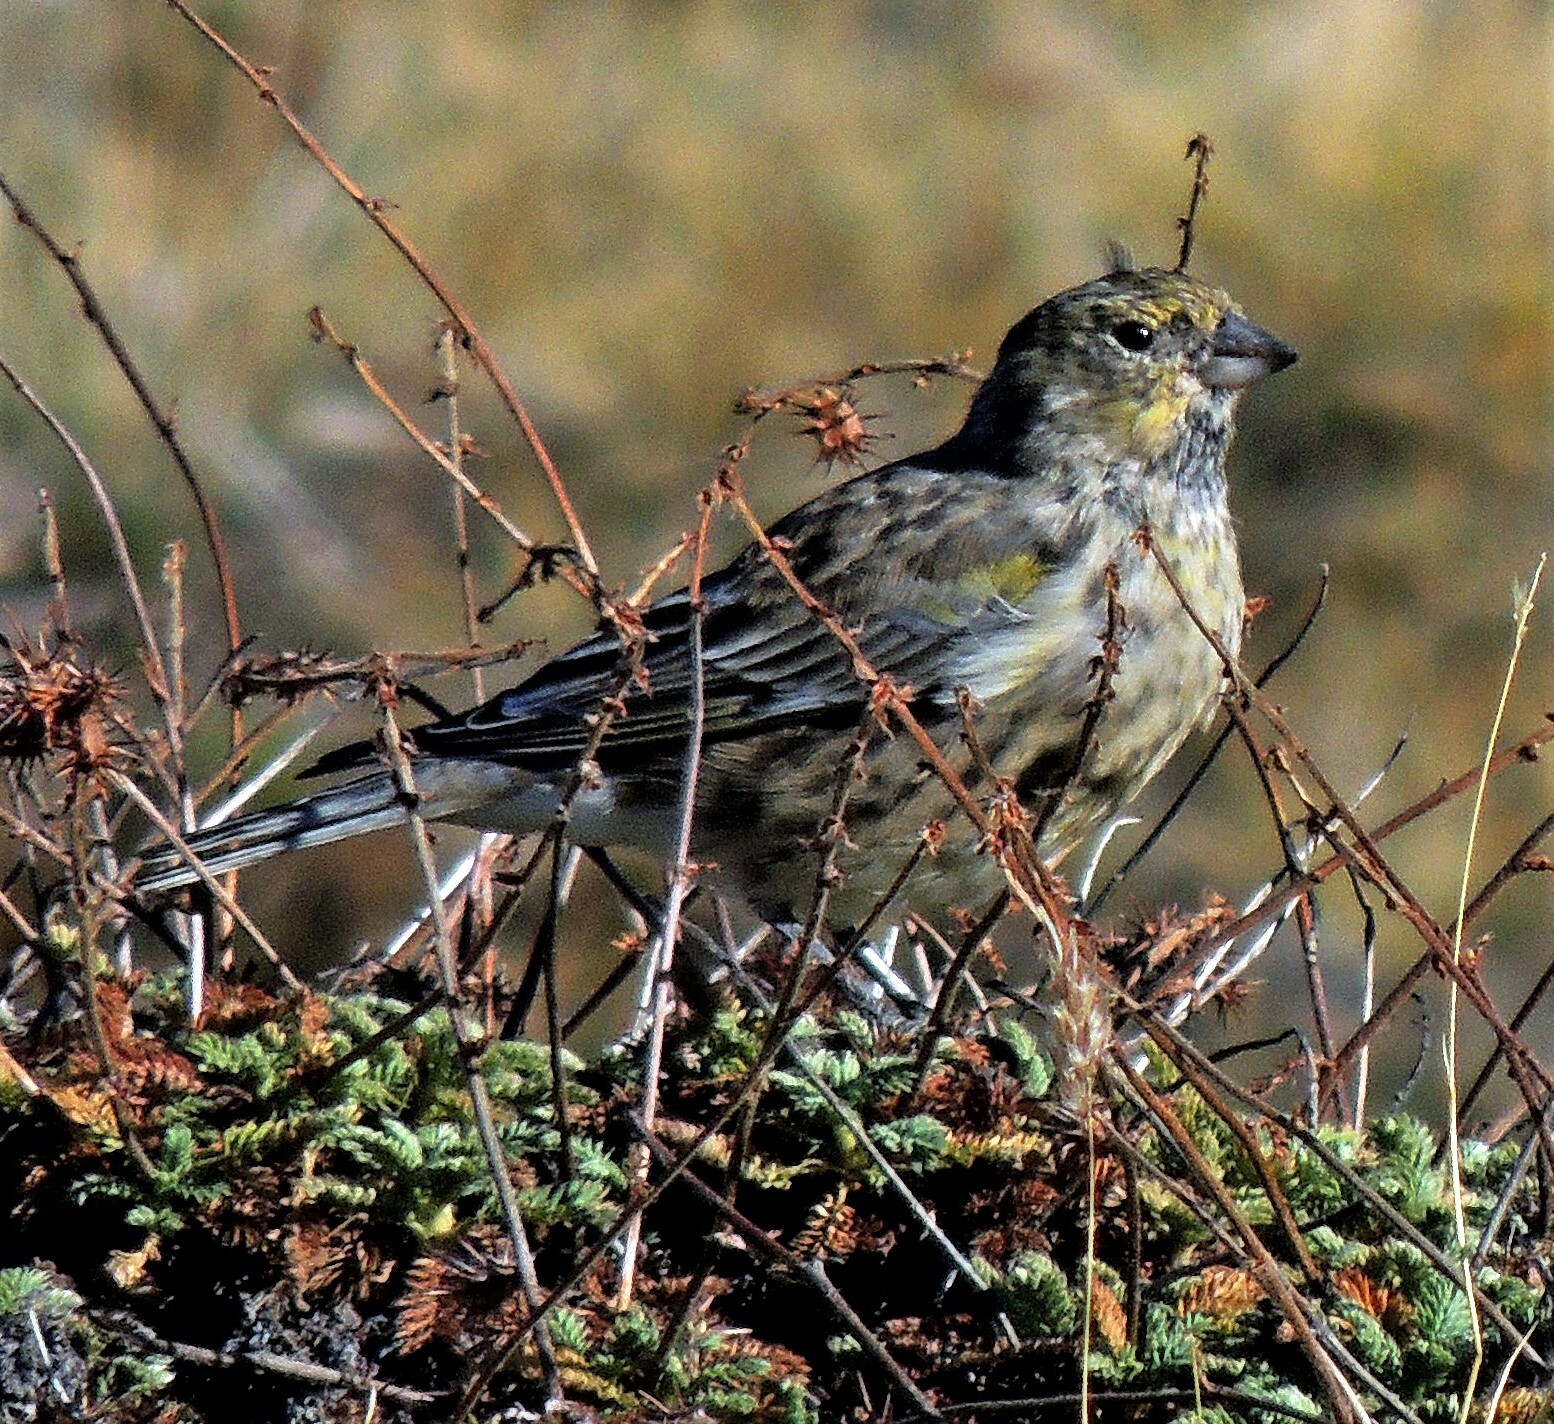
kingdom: Animalia
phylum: Chordata
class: Aves
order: Passeriformes
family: Thraupidae
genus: Melanodera
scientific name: Melanodera xanthogramma
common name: Yellow-bridled finch
